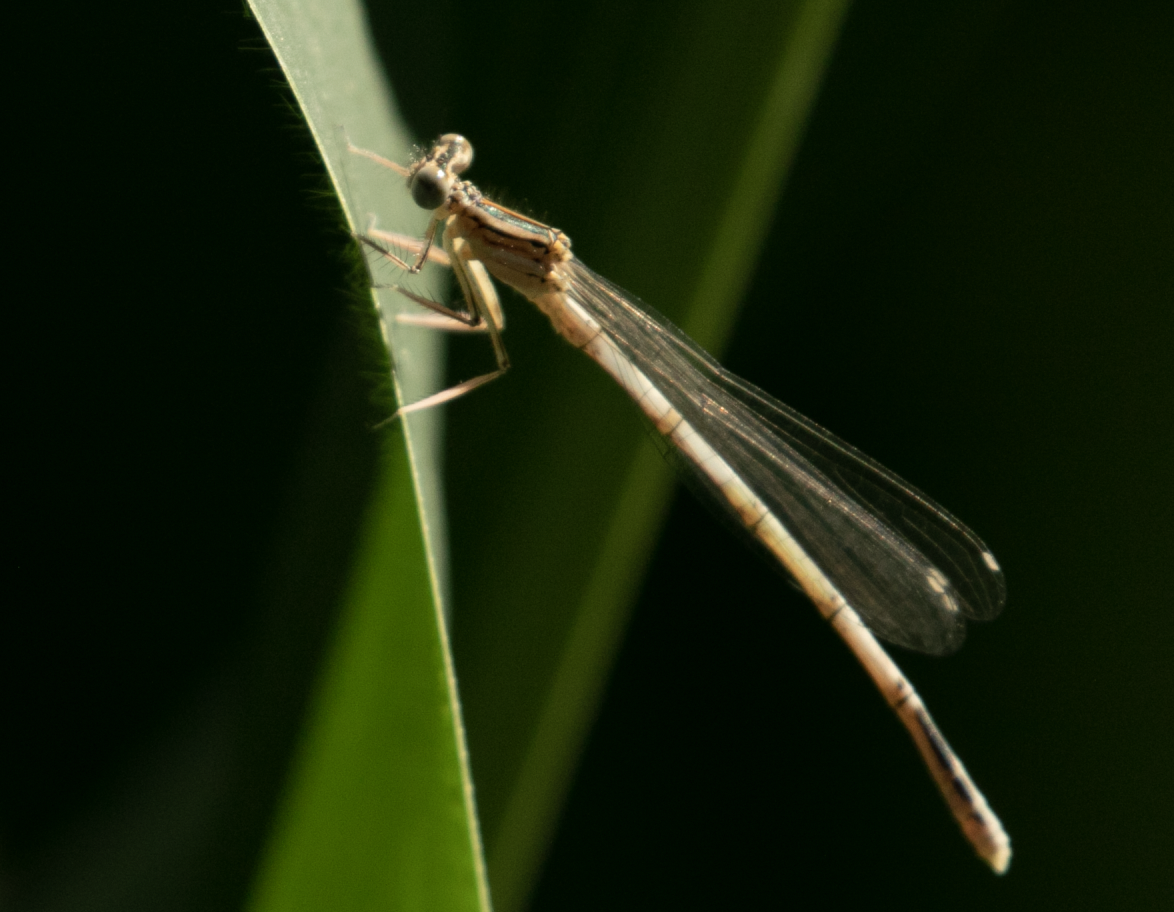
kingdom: Animalia
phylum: Arthropoda
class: Insecta
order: Odonata
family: Platycnemididae
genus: Platycnemis
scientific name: Platycnemis pennipes
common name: White-legged damselfly
